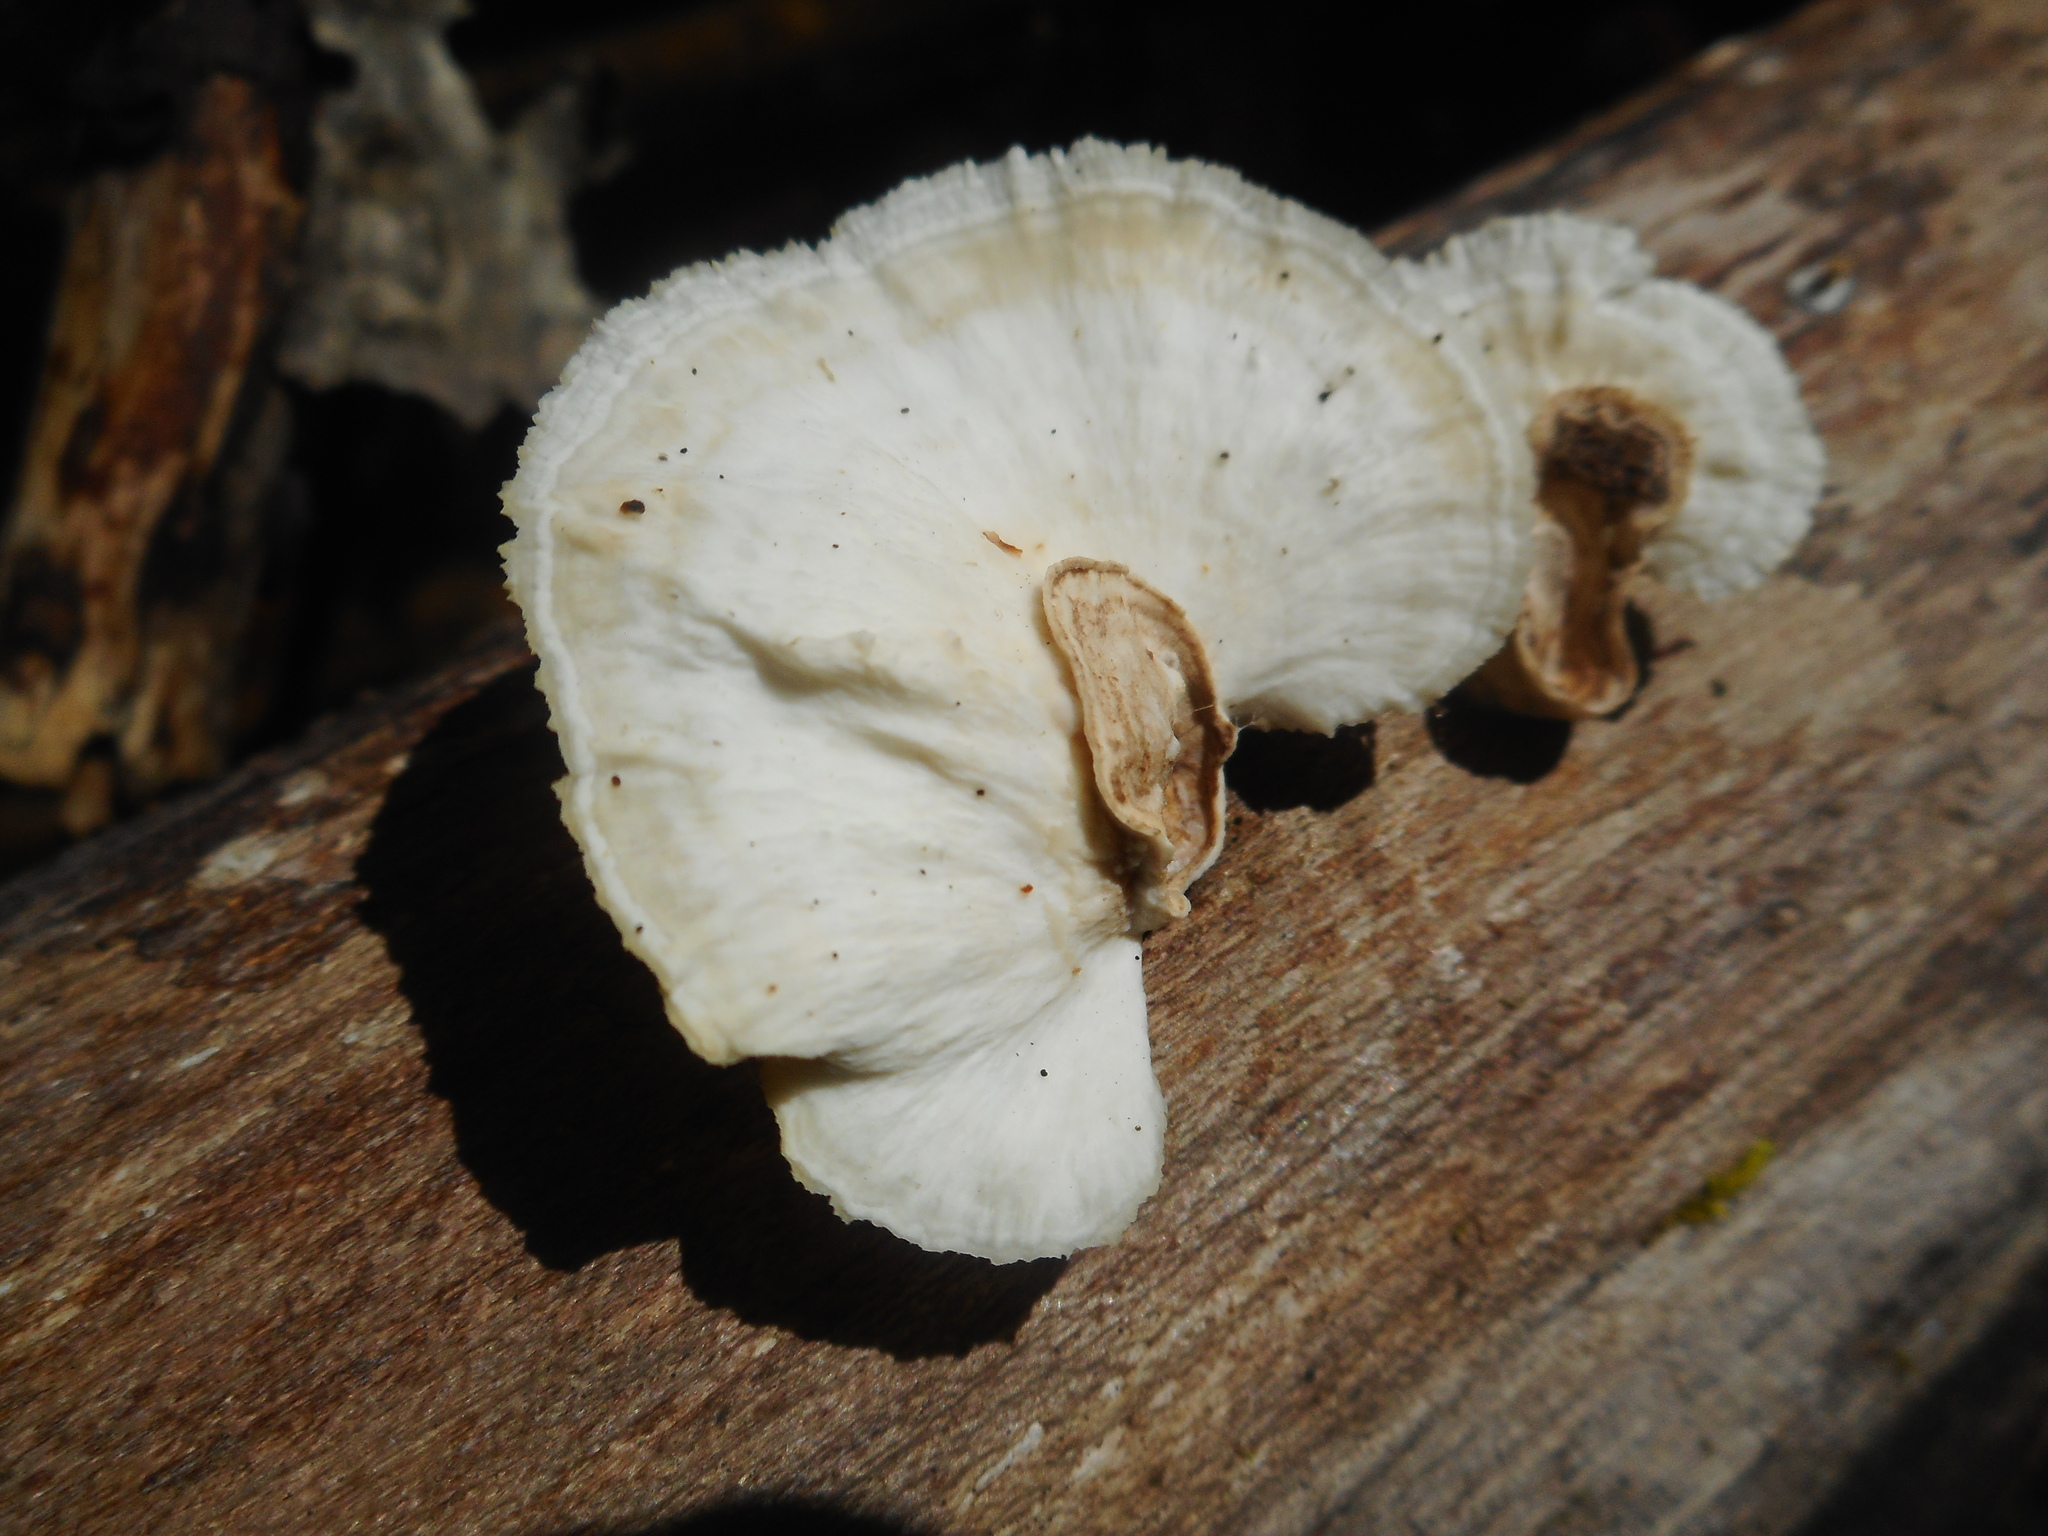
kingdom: Fungi
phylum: Basidiomycota
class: Agaricomycetes
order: Polyporales
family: Polyporaceae
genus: Poronidulus
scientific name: Poronidulus conchifer
